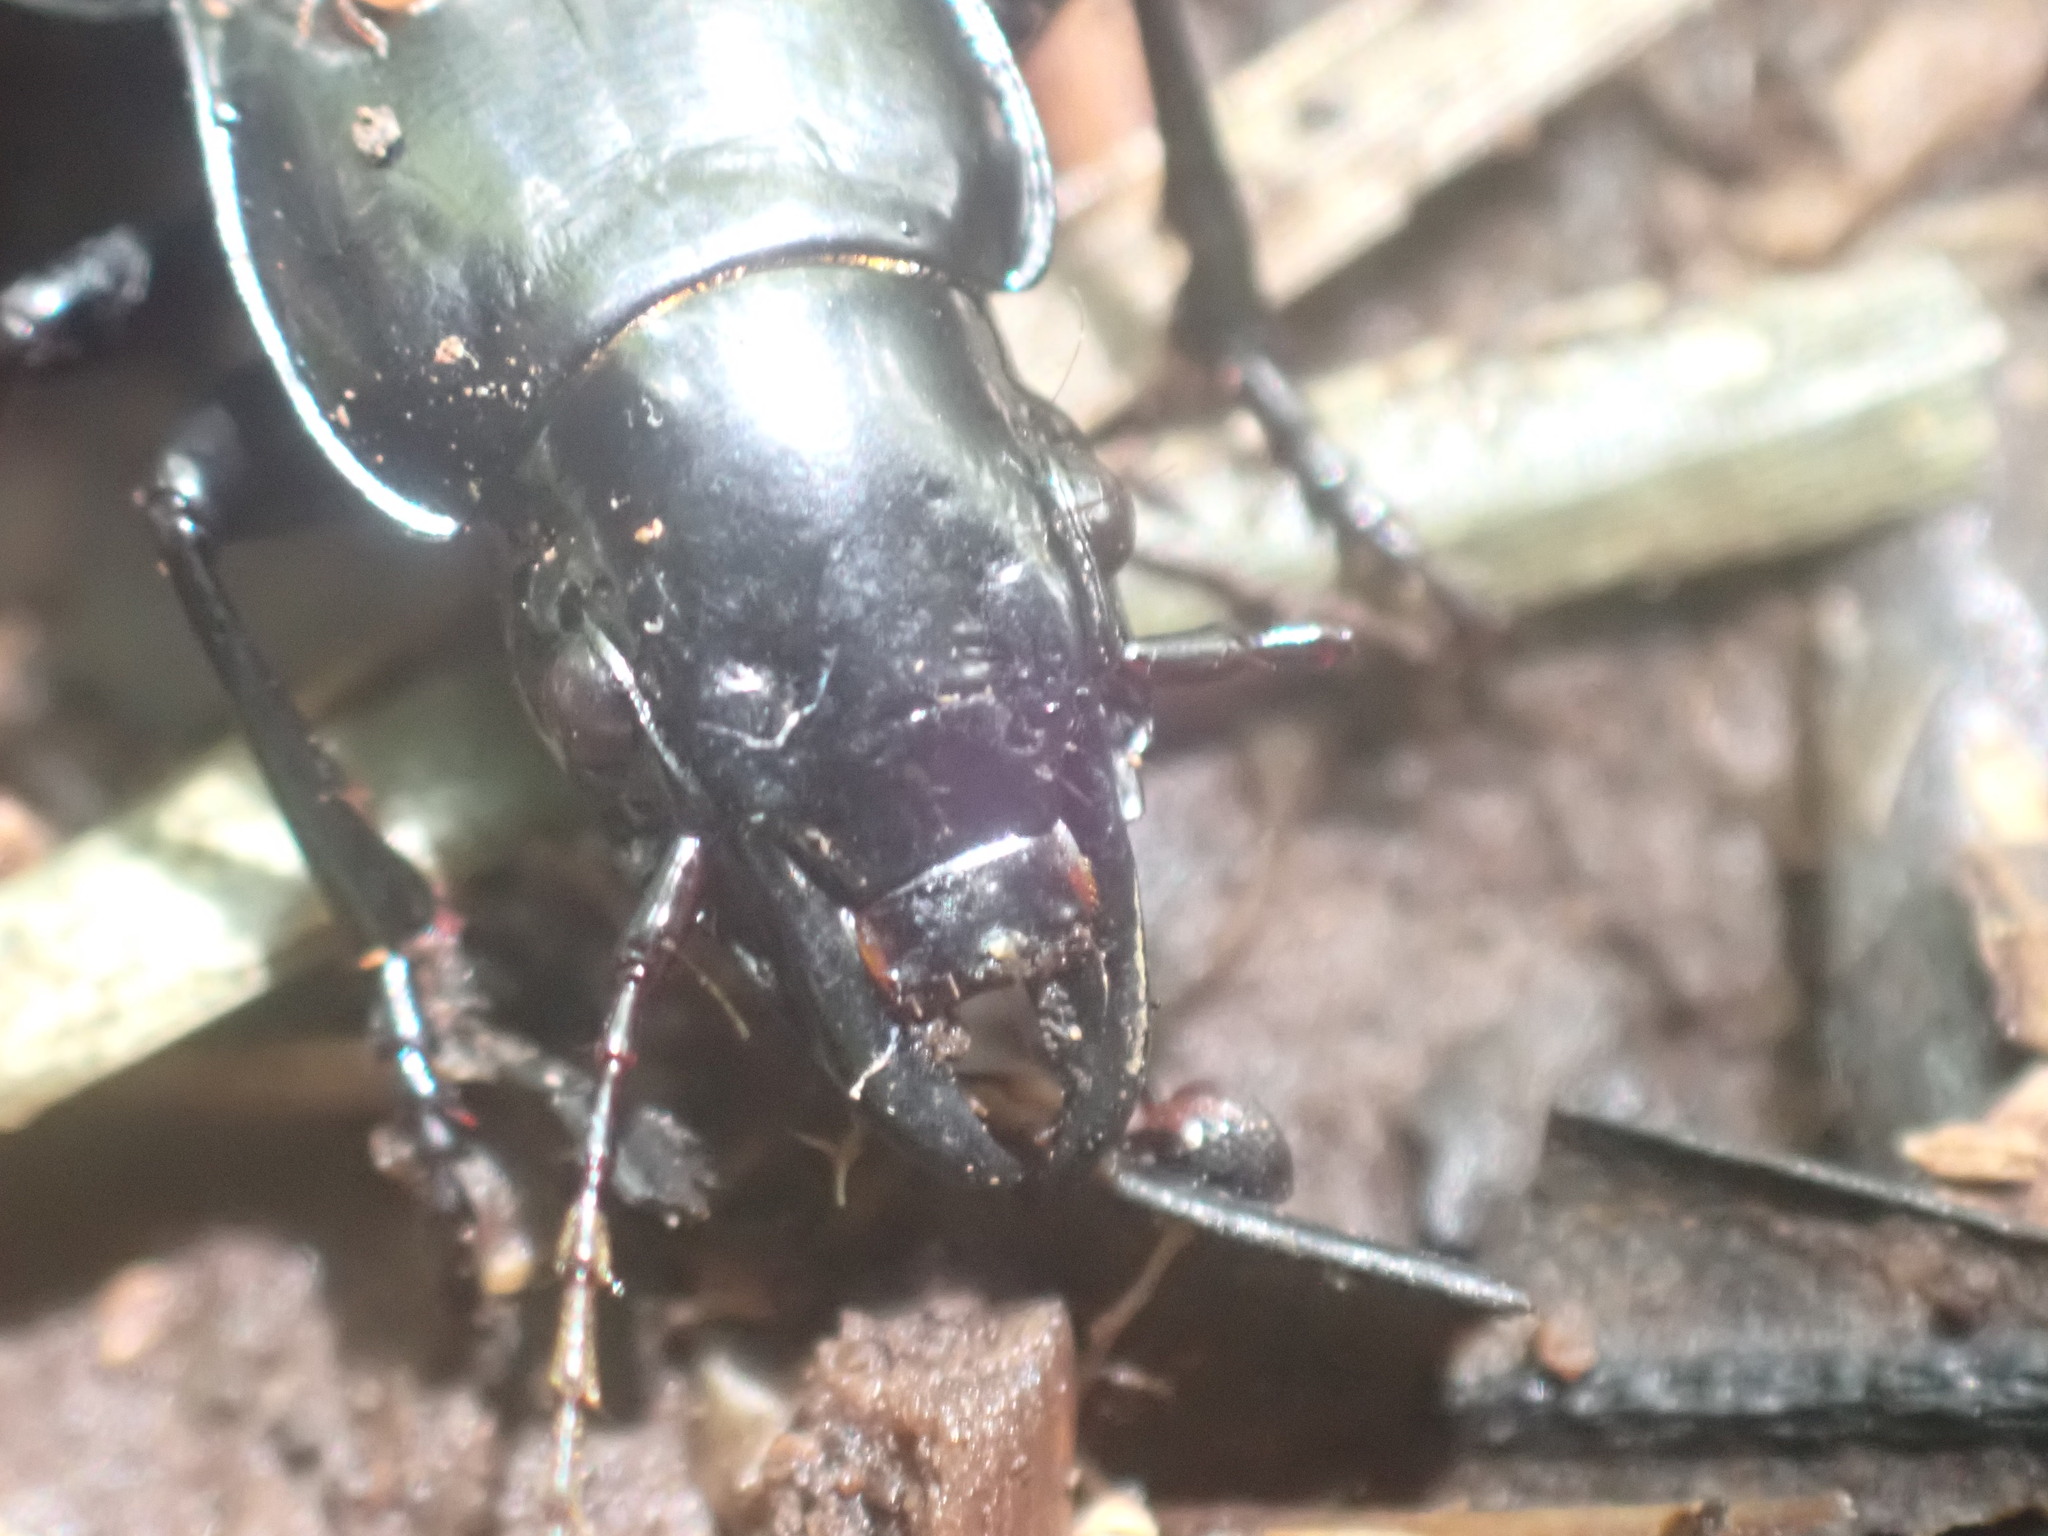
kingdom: Animalia
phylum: Arthropoda
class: Insecta
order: Coleoptera
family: Carabidae
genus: Plocamostethus
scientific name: Plocamostethus planiusculus
